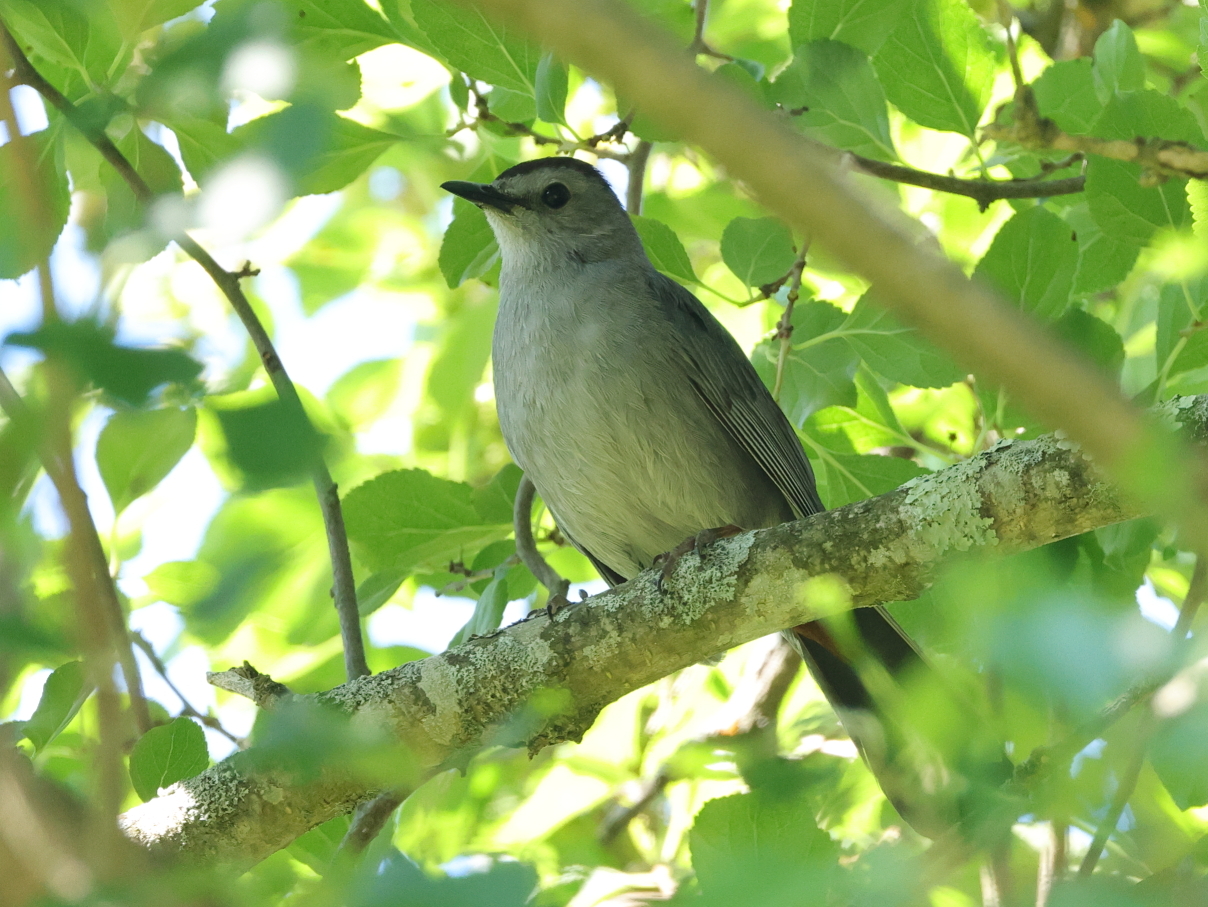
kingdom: Animalia
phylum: Chordata
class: Aves
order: Passeriformes
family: Mimidae
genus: Dumetella
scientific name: Dumetella carolinensis
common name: Gray catbird
